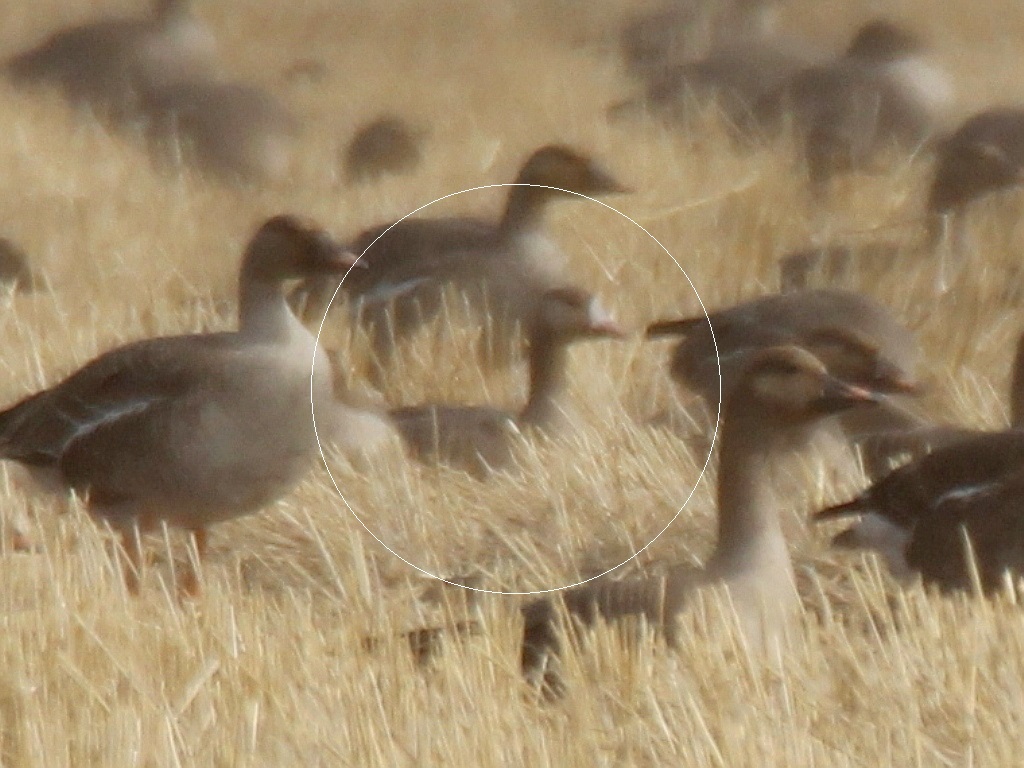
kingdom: Animalia
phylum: Chordata
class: Aves
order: Anseriformes
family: Anatidae
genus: Anser
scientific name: Anser albifrons
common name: Greater white-fronted goose
